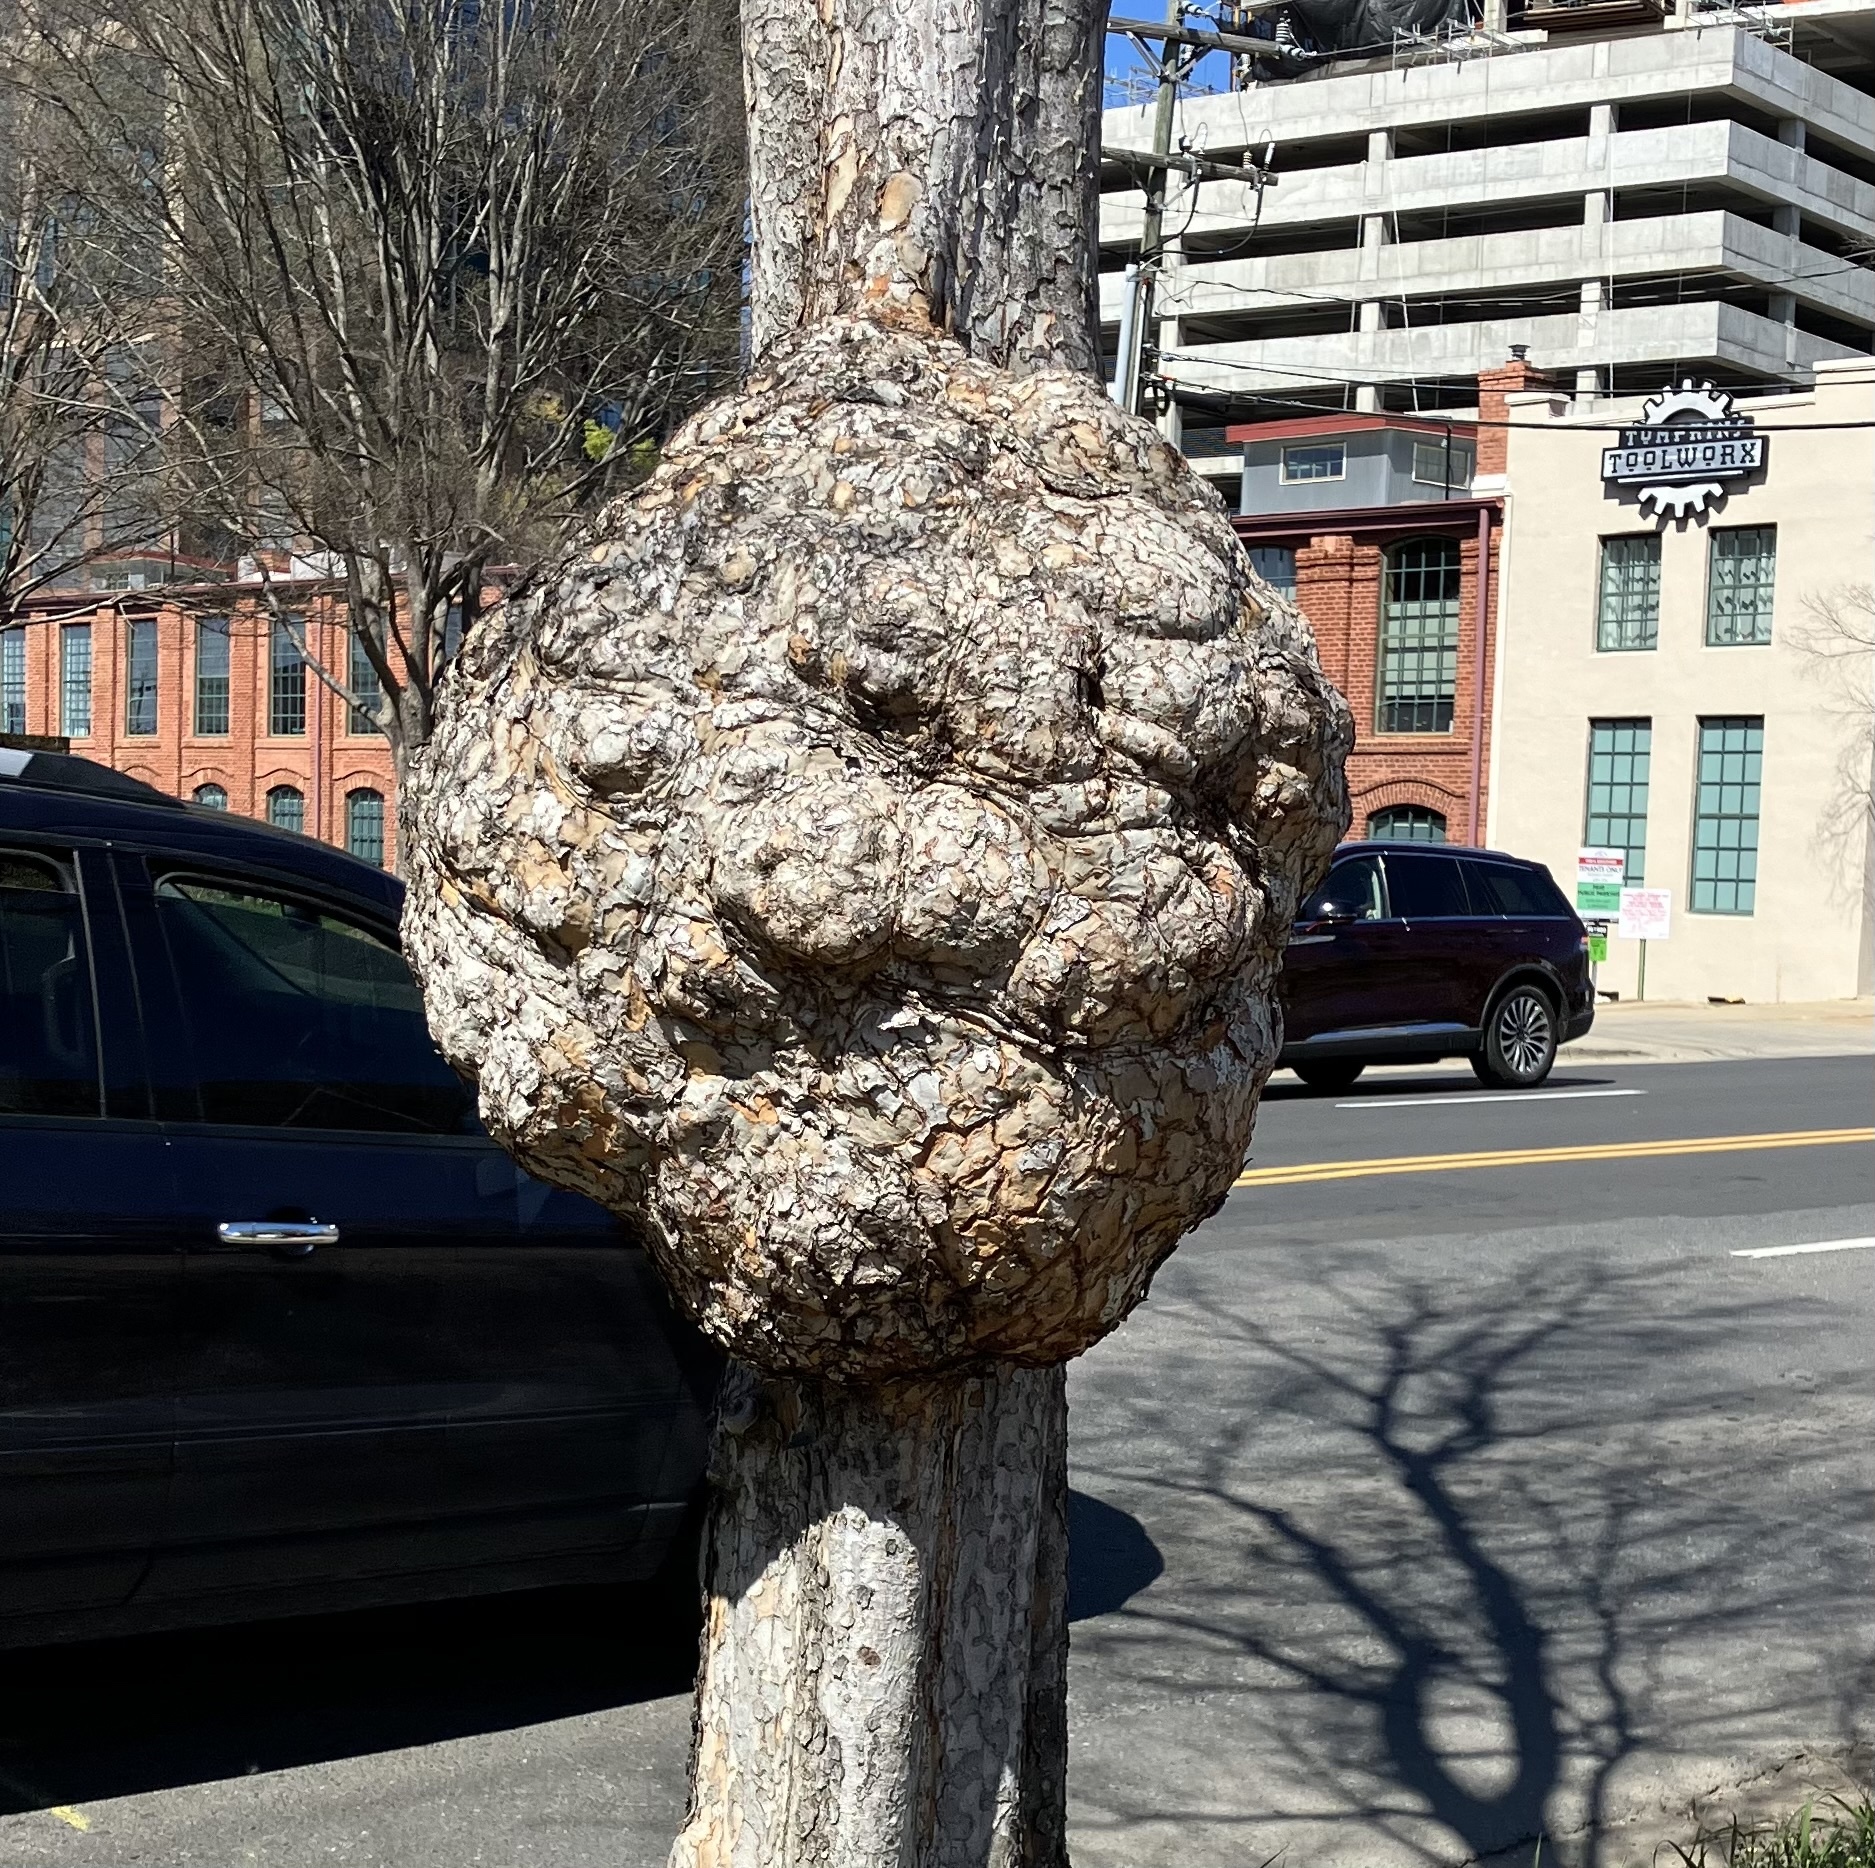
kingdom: Bacteria
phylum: Proteobacteria
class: Alphaproteobacteria
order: Rhizobiales
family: Rhizobiaceae
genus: Rhizobium
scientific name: Rhizobium Agrobacterium radiobacter
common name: Bacterial crown gall
